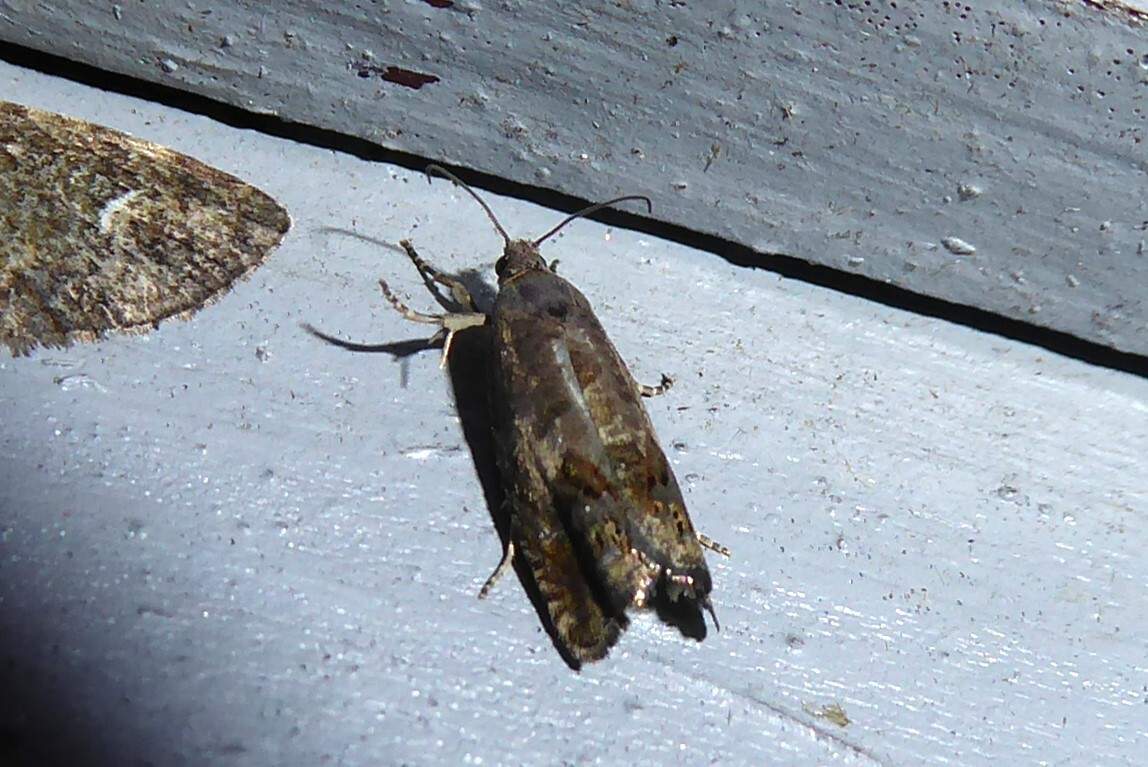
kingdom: Animalia
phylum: Arthropoda
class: Insecta
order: Lepidoptera
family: Tortricidae
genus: Cydia
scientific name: Cydia succedana
